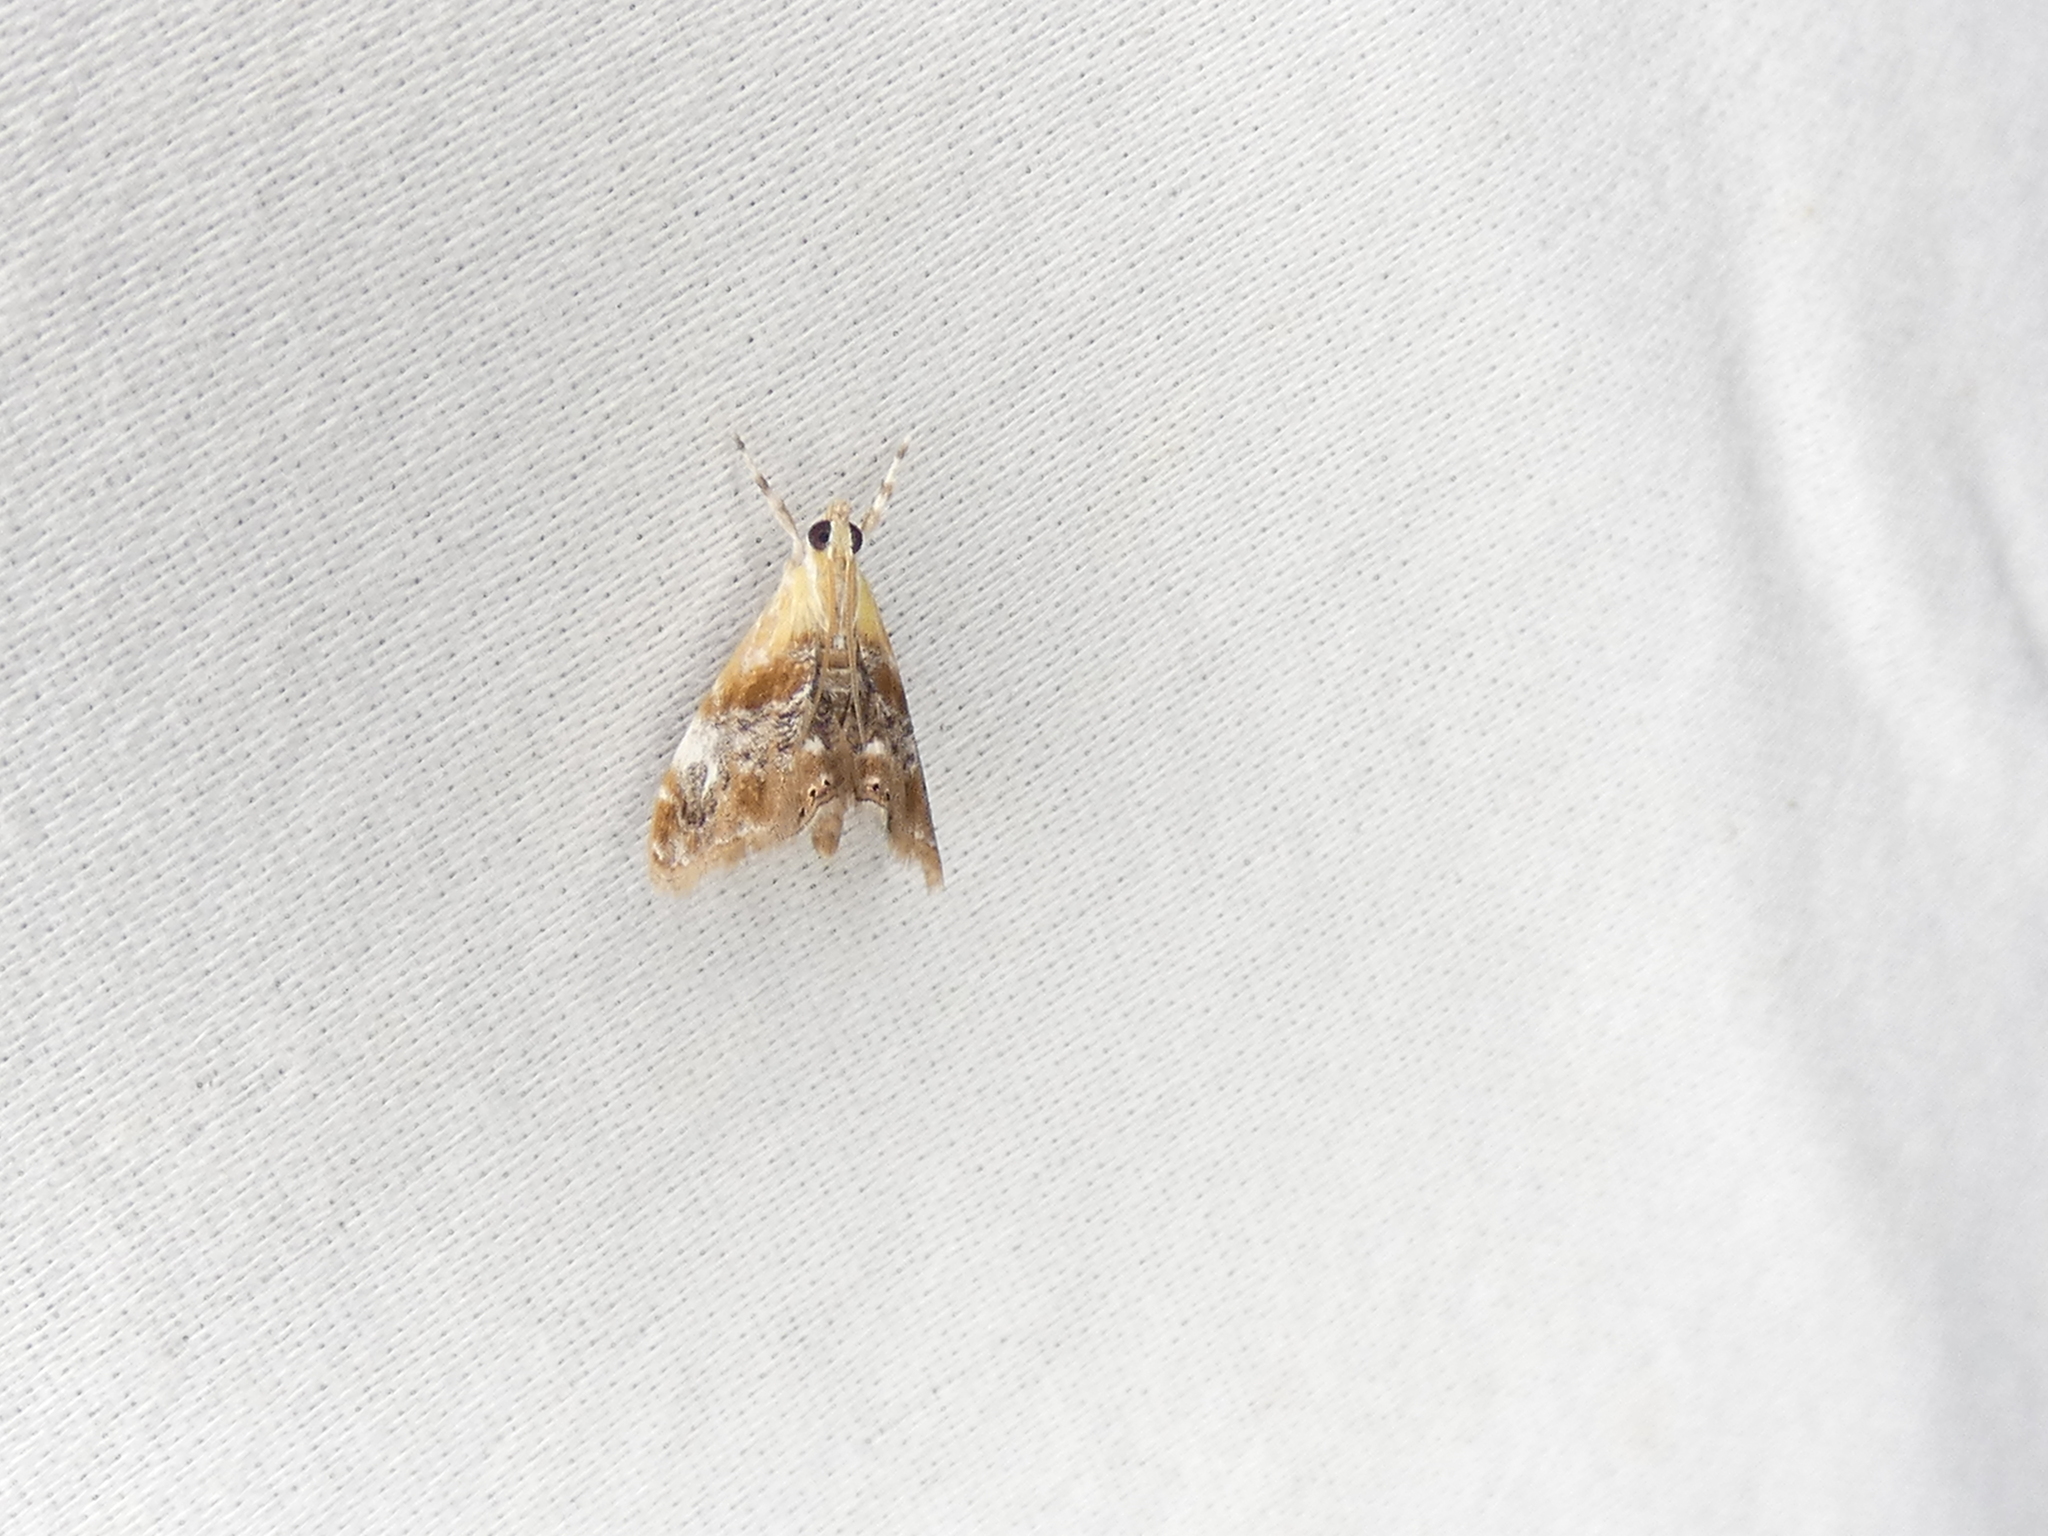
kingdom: Animalia
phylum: Arthropoda
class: Insecta
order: Lepidoptera
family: Crambidae
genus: Dicymolomia
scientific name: Dicymolomia julianalis
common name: Julia's dicymolomia moth
